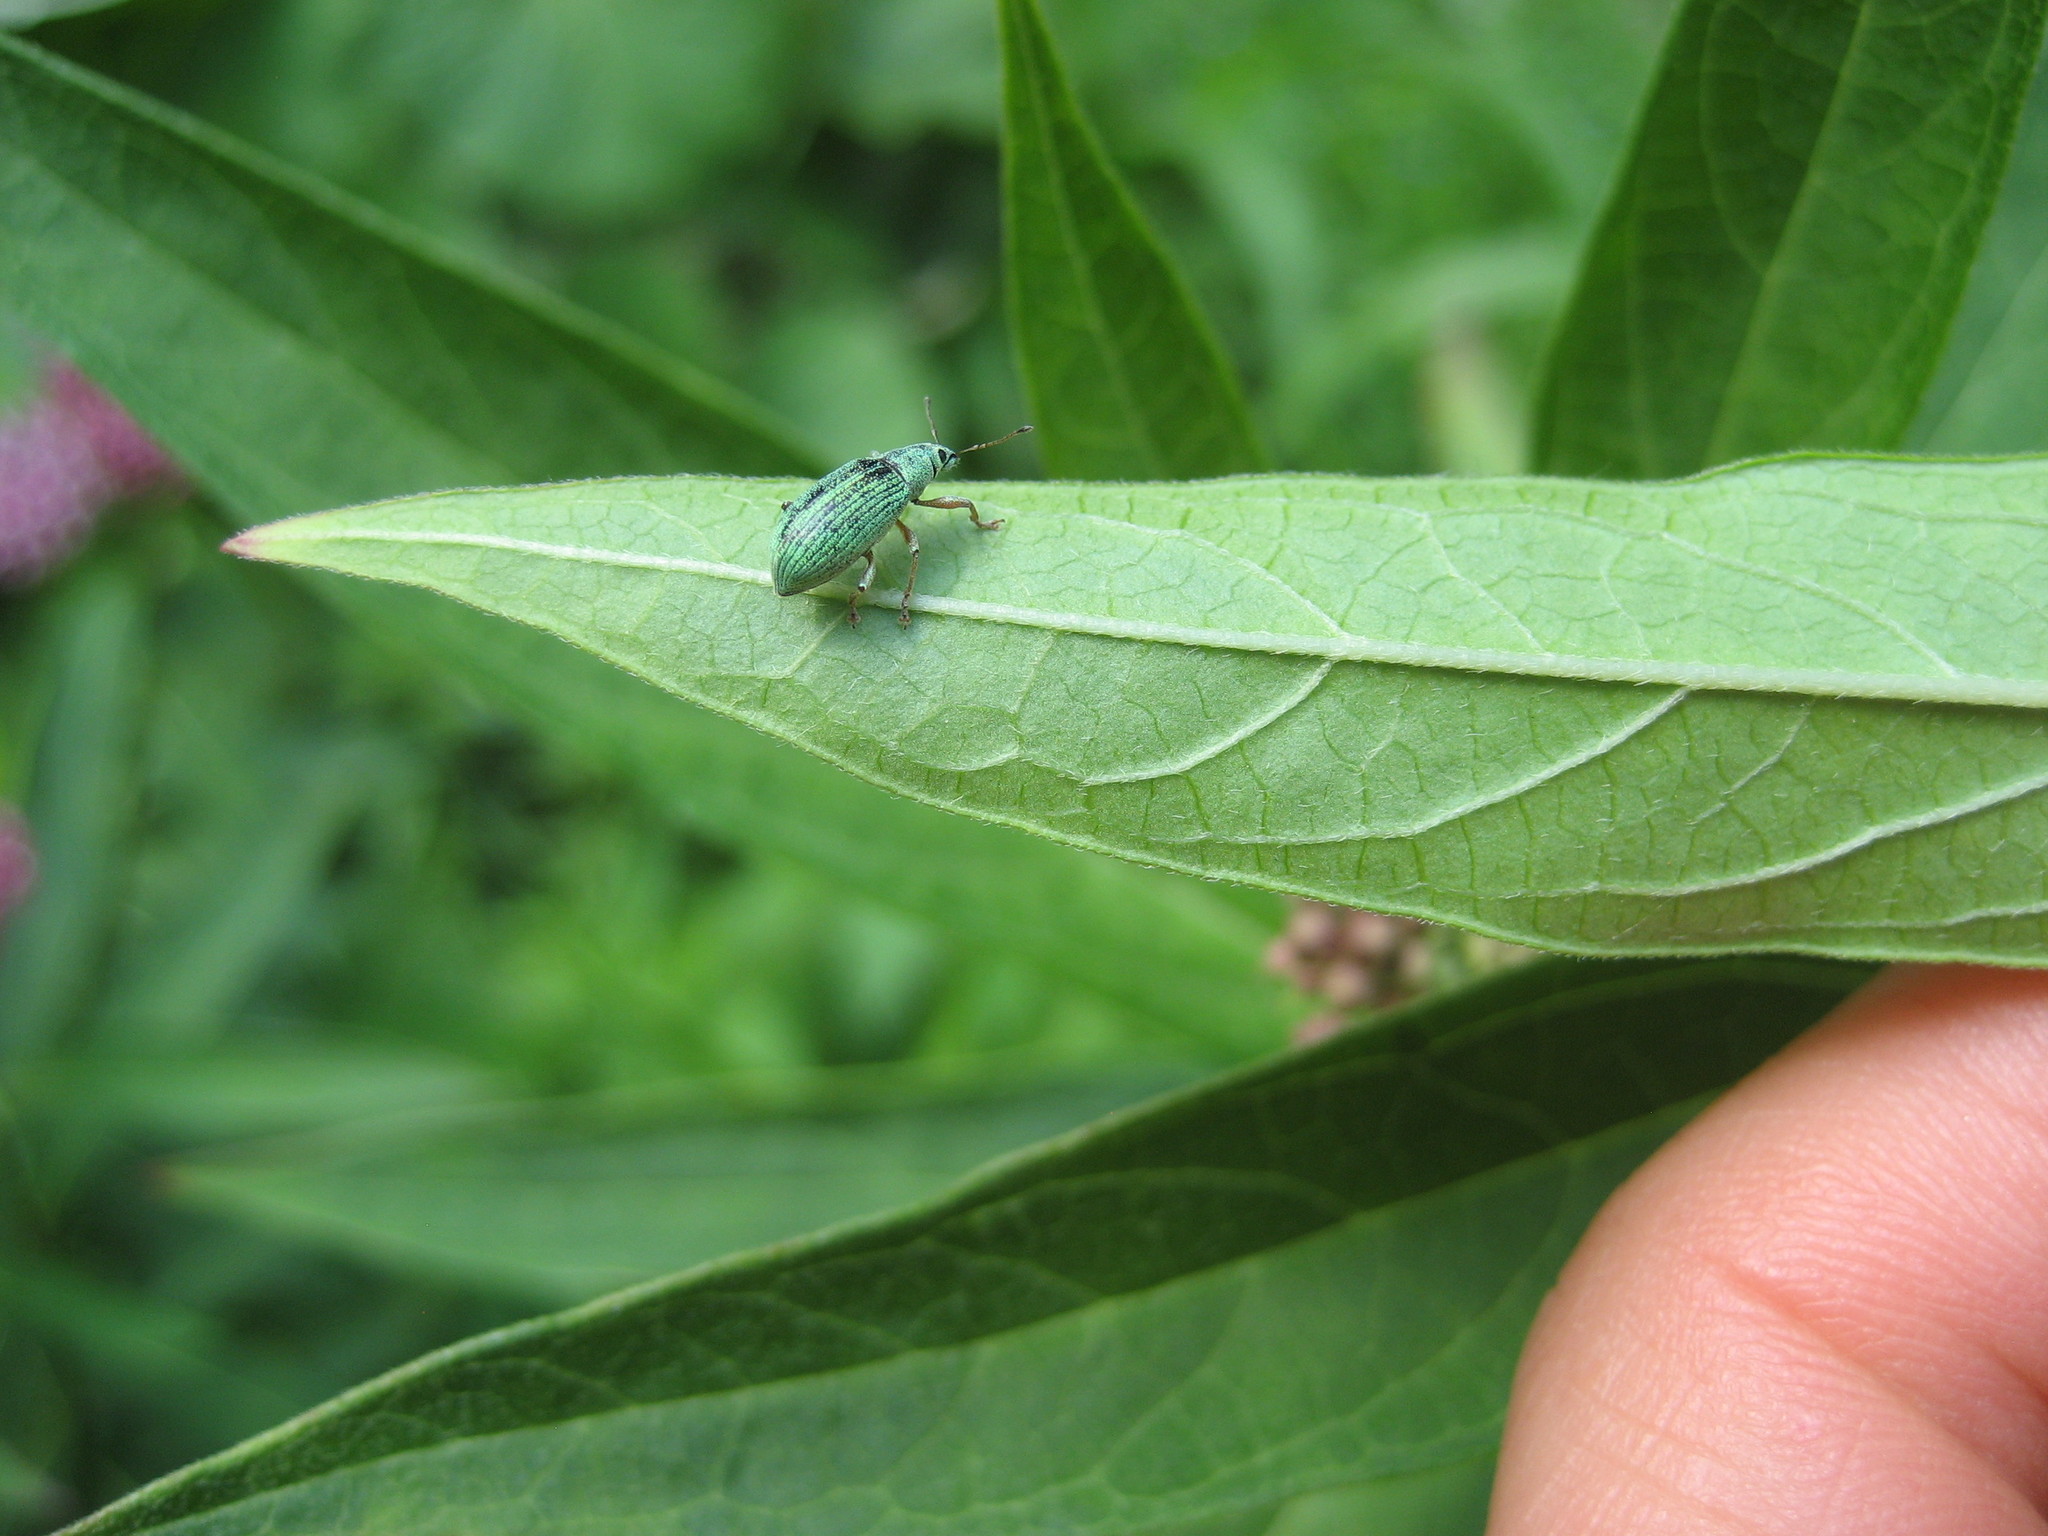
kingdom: Animalia
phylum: Arthropoda
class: Insecta
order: Coleoptera
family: Curculionidae
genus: Polydrusus
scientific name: Polydrusus formosus
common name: Weevil
